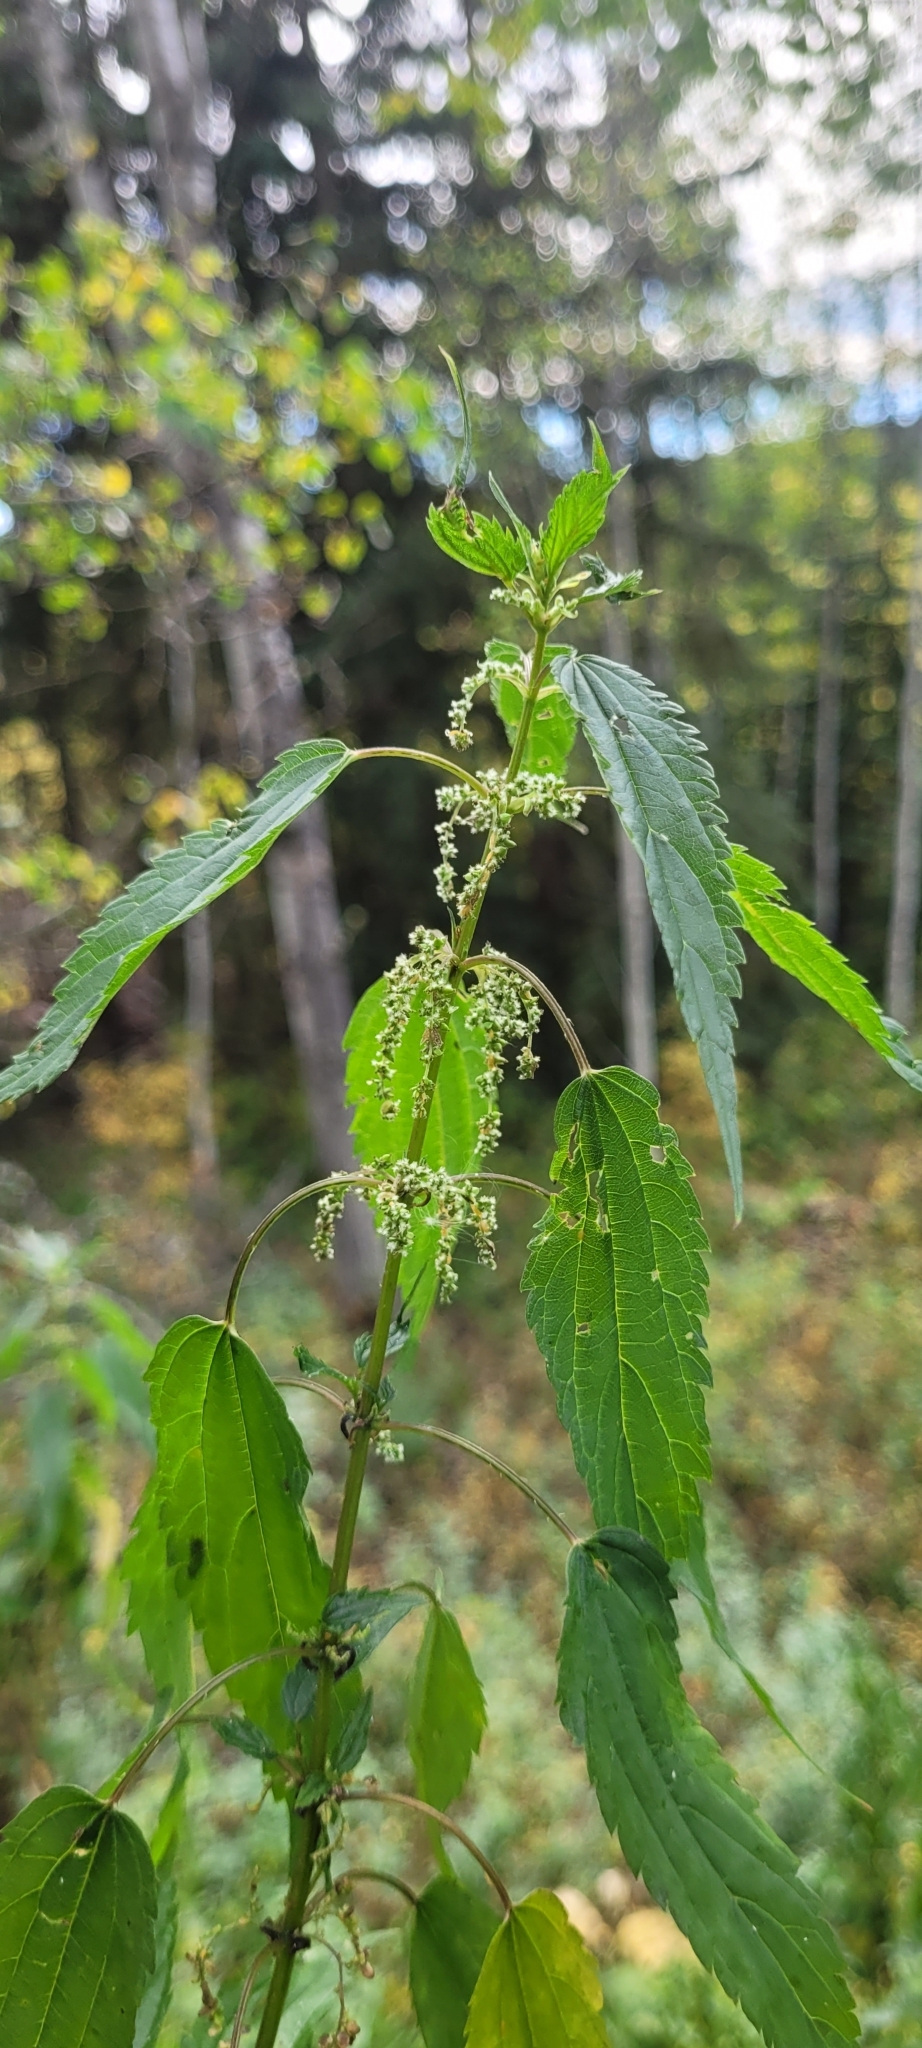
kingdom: Plantae
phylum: Tracheophyta
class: Magnoliopsida
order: Rosales
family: Urticaceae
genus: Urtica
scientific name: Urtica gracilis
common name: Slender stinging nettle
